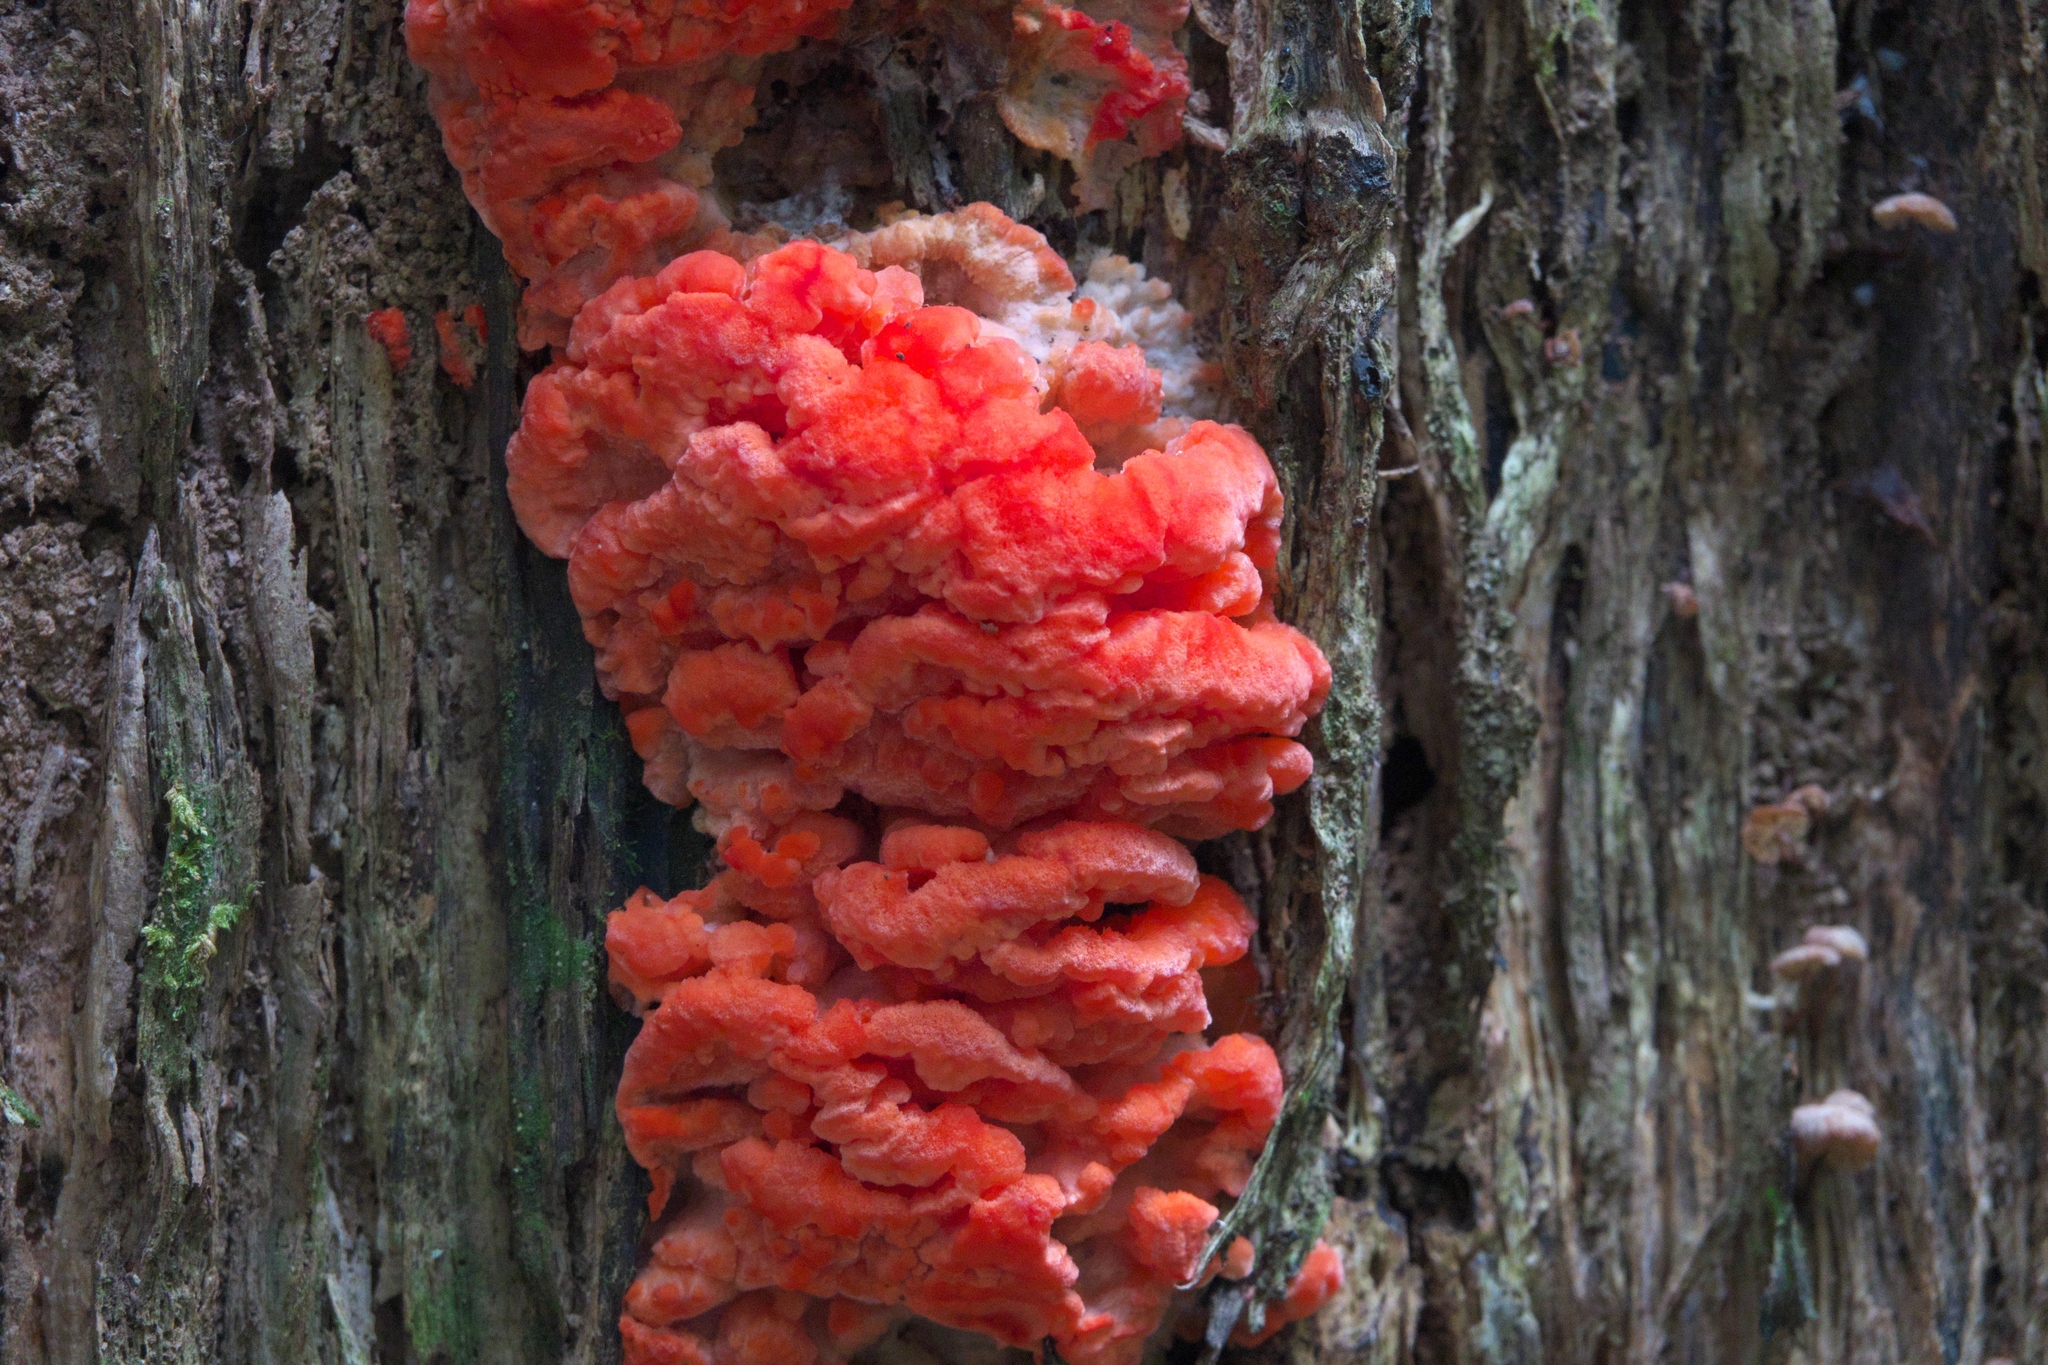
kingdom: Fungi
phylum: Basidiomycota
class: Agaricomycetes
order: Polyporales
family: Incrustoporiaceae
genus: Tyromyces
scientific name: Tyromyces pulcherrimus
